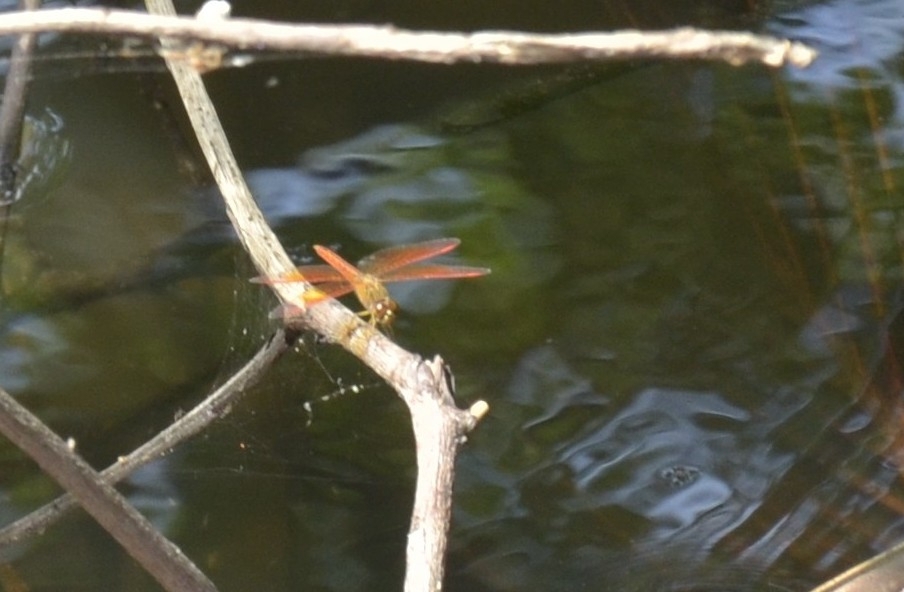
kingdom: Animalia
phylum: Arthropoda
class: Insecta
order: Odonata
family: Libellulidae
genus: Brachythemis
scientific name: Brachythemis contaminata
